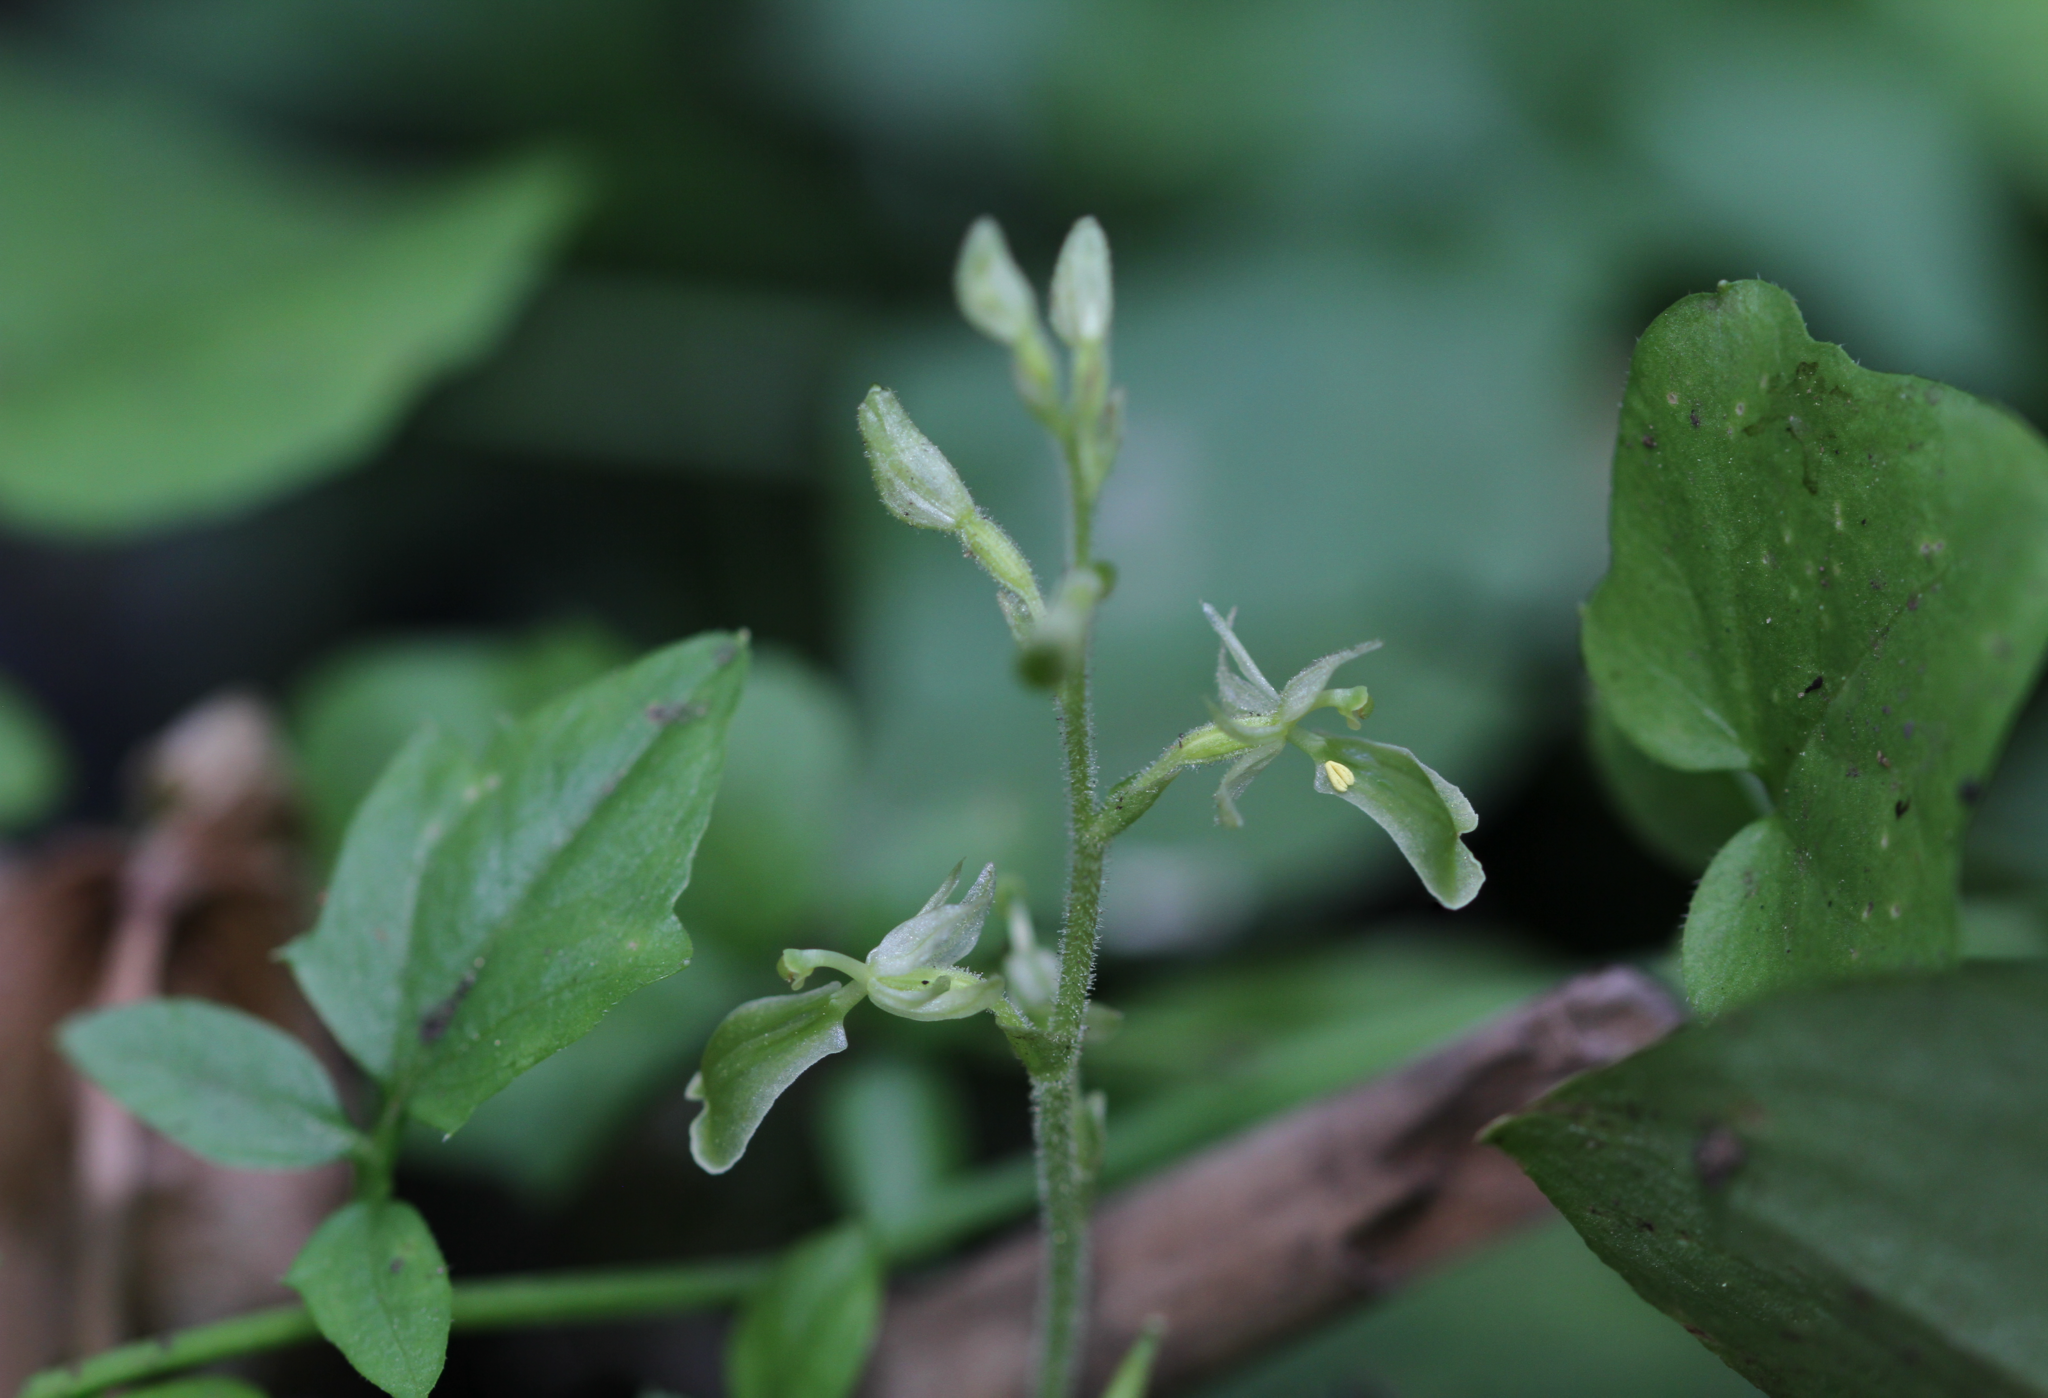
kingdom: Plantae
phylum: Tracheophyta
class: Liliopsida
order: Asparagales
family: Orchidaceae
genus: Neottia
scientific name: Neottia convallarioides
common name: Broadleaf twayblade
